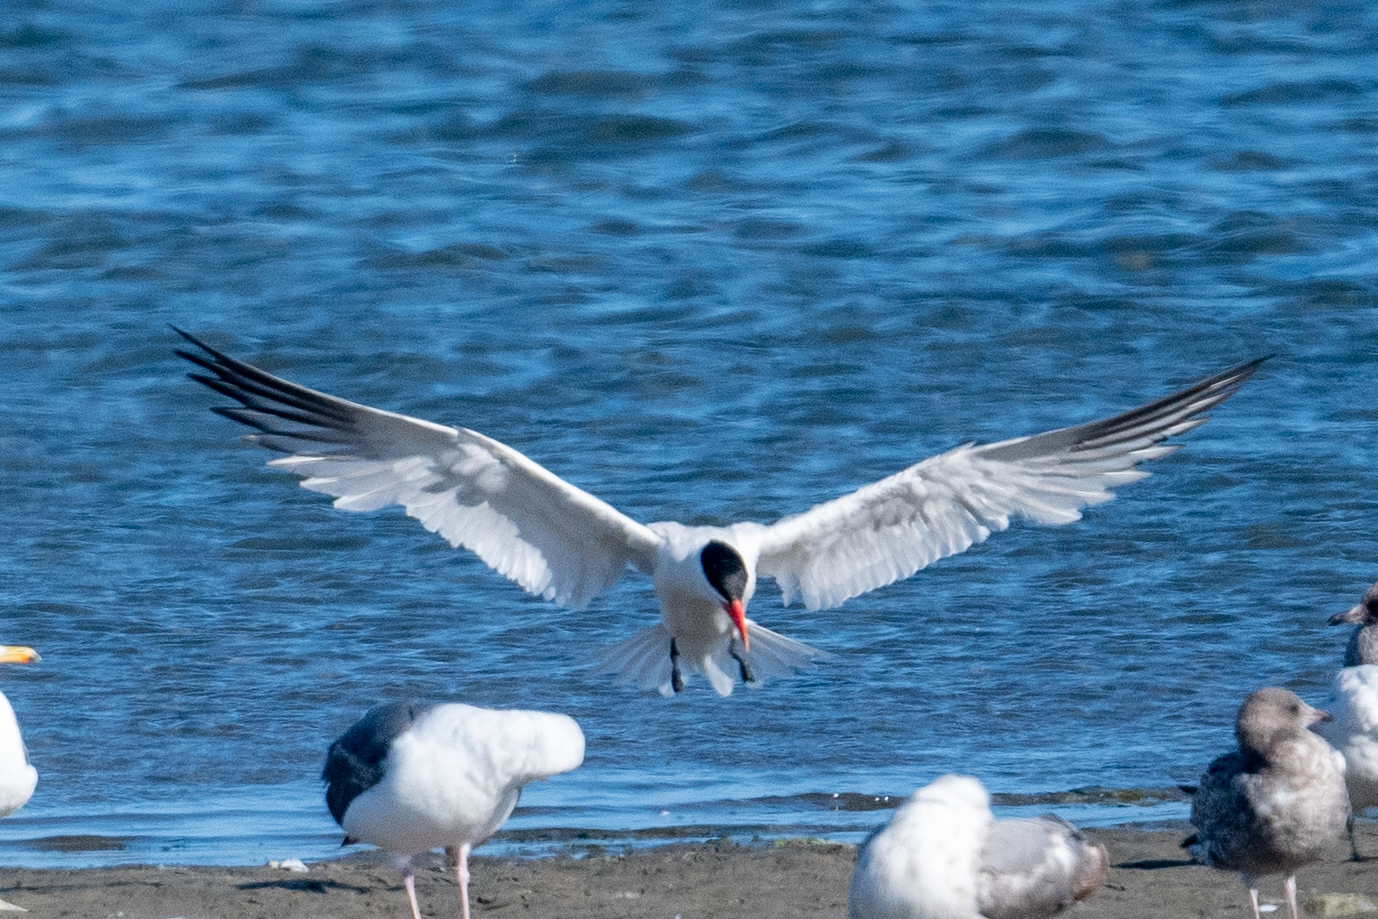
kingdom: Animalia
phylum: Chordata
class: Aves
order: Charadriiformes
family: Laridae
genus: Hydroprogne
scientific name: Hydroprogne caspia
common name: Caspian tern
